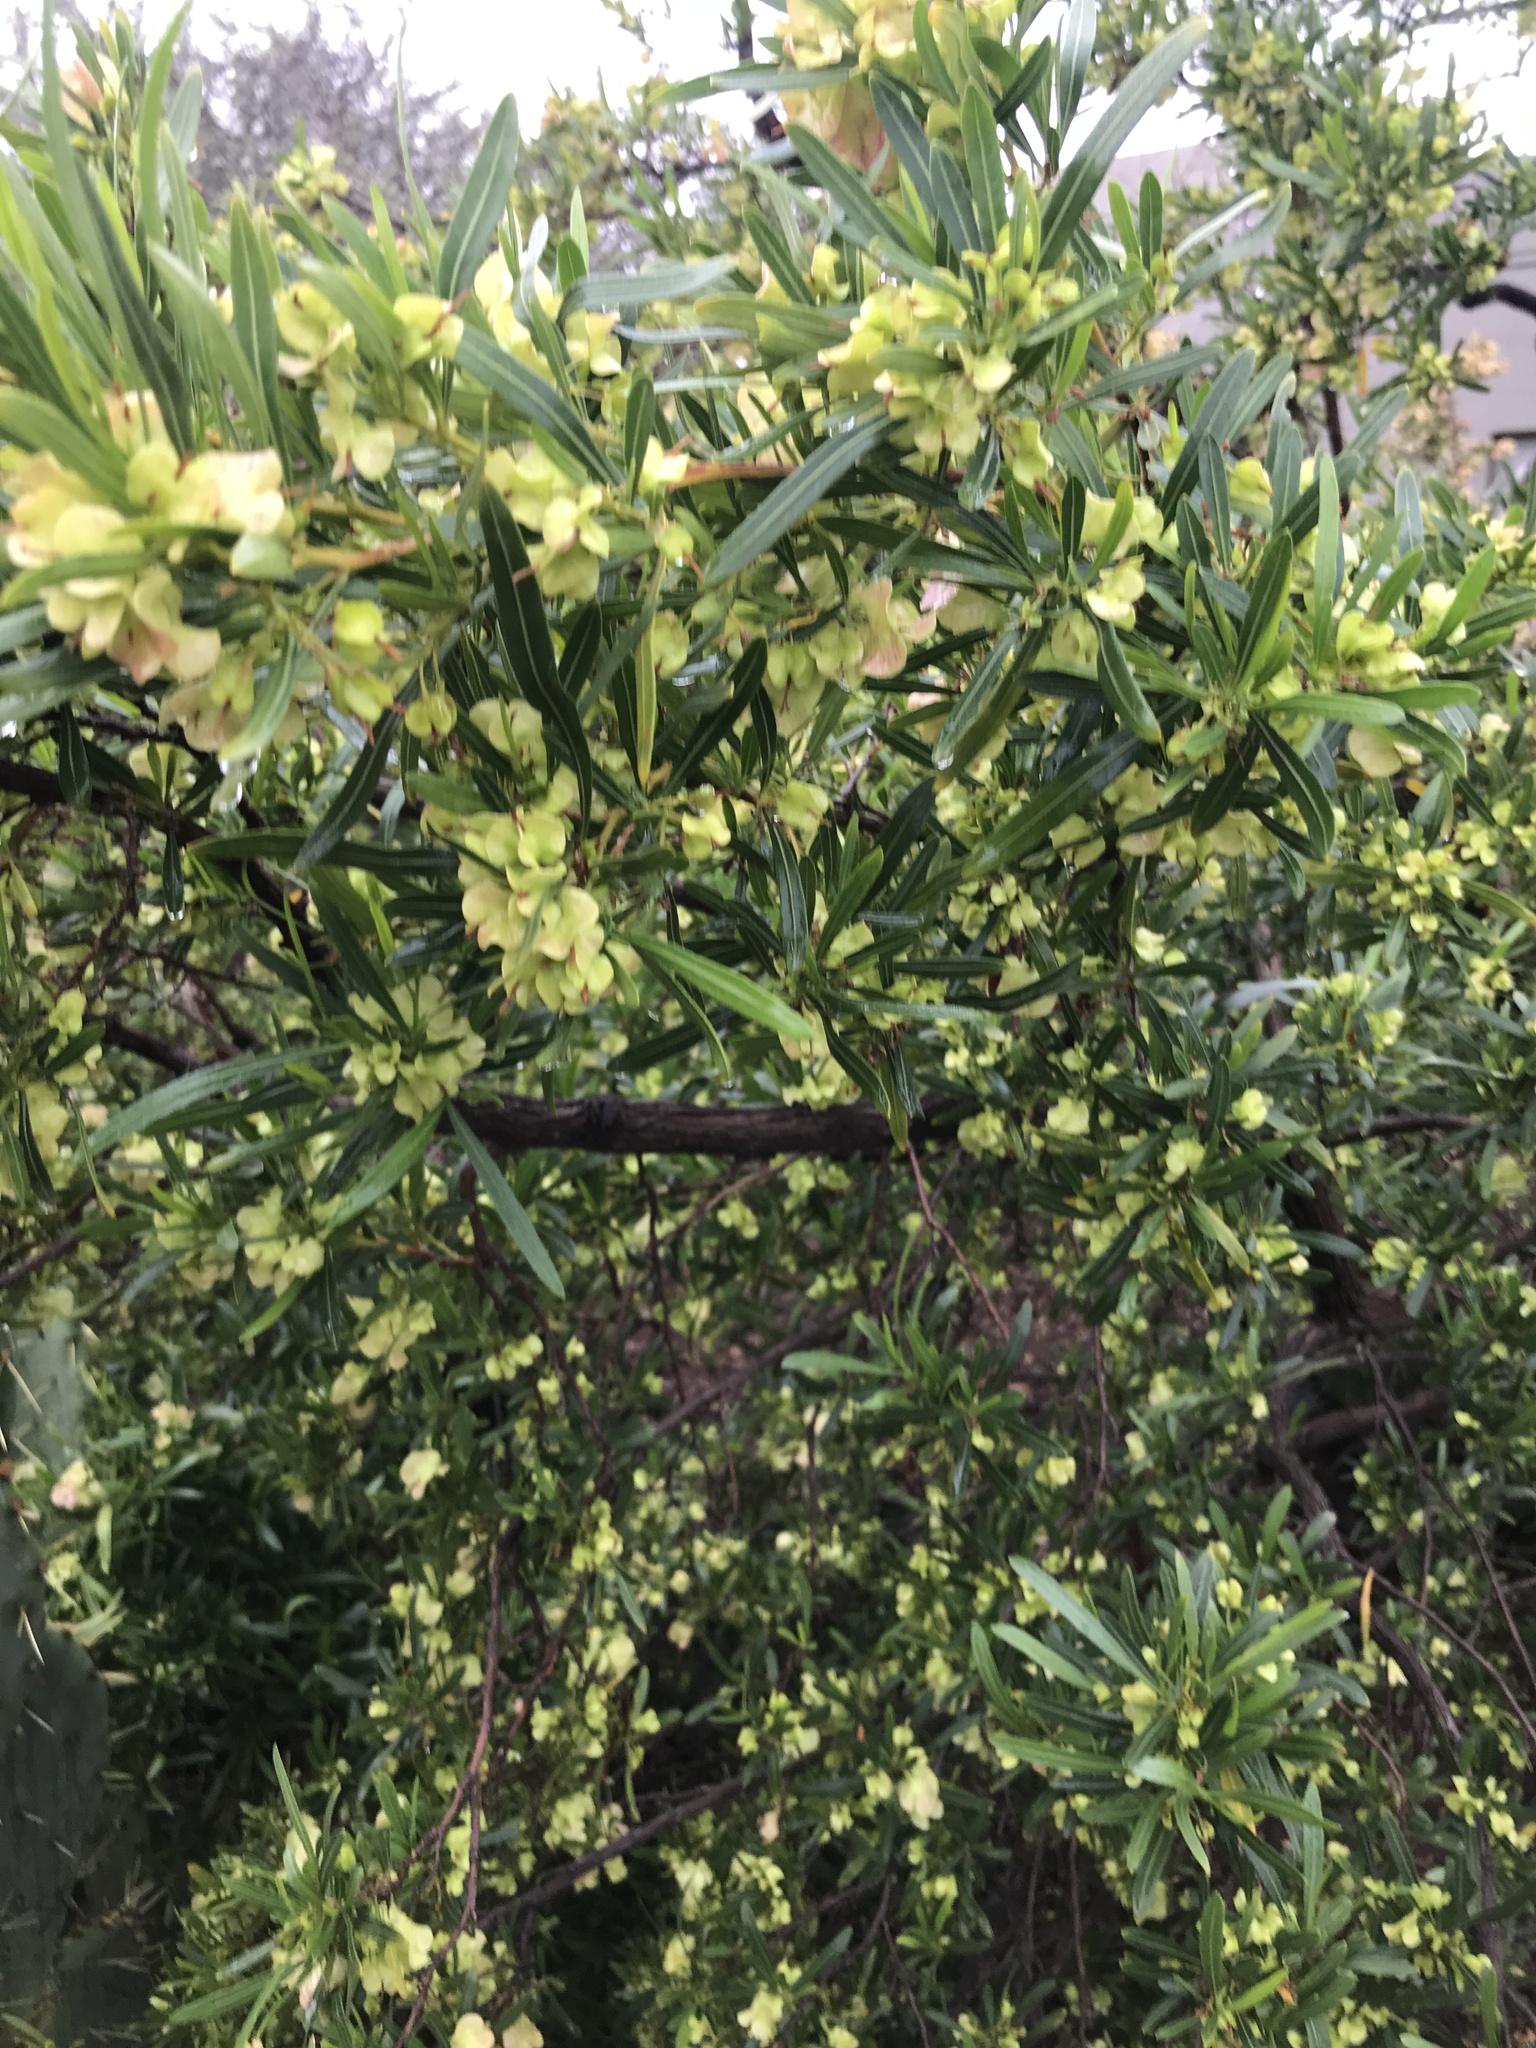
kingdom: Plantae
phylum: Tracheophyta
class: Magnoliopsida
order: Sapindales
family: Sapindaceae
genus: Dodonaea
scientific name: Dodonaea viscosa
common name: Hopbush
